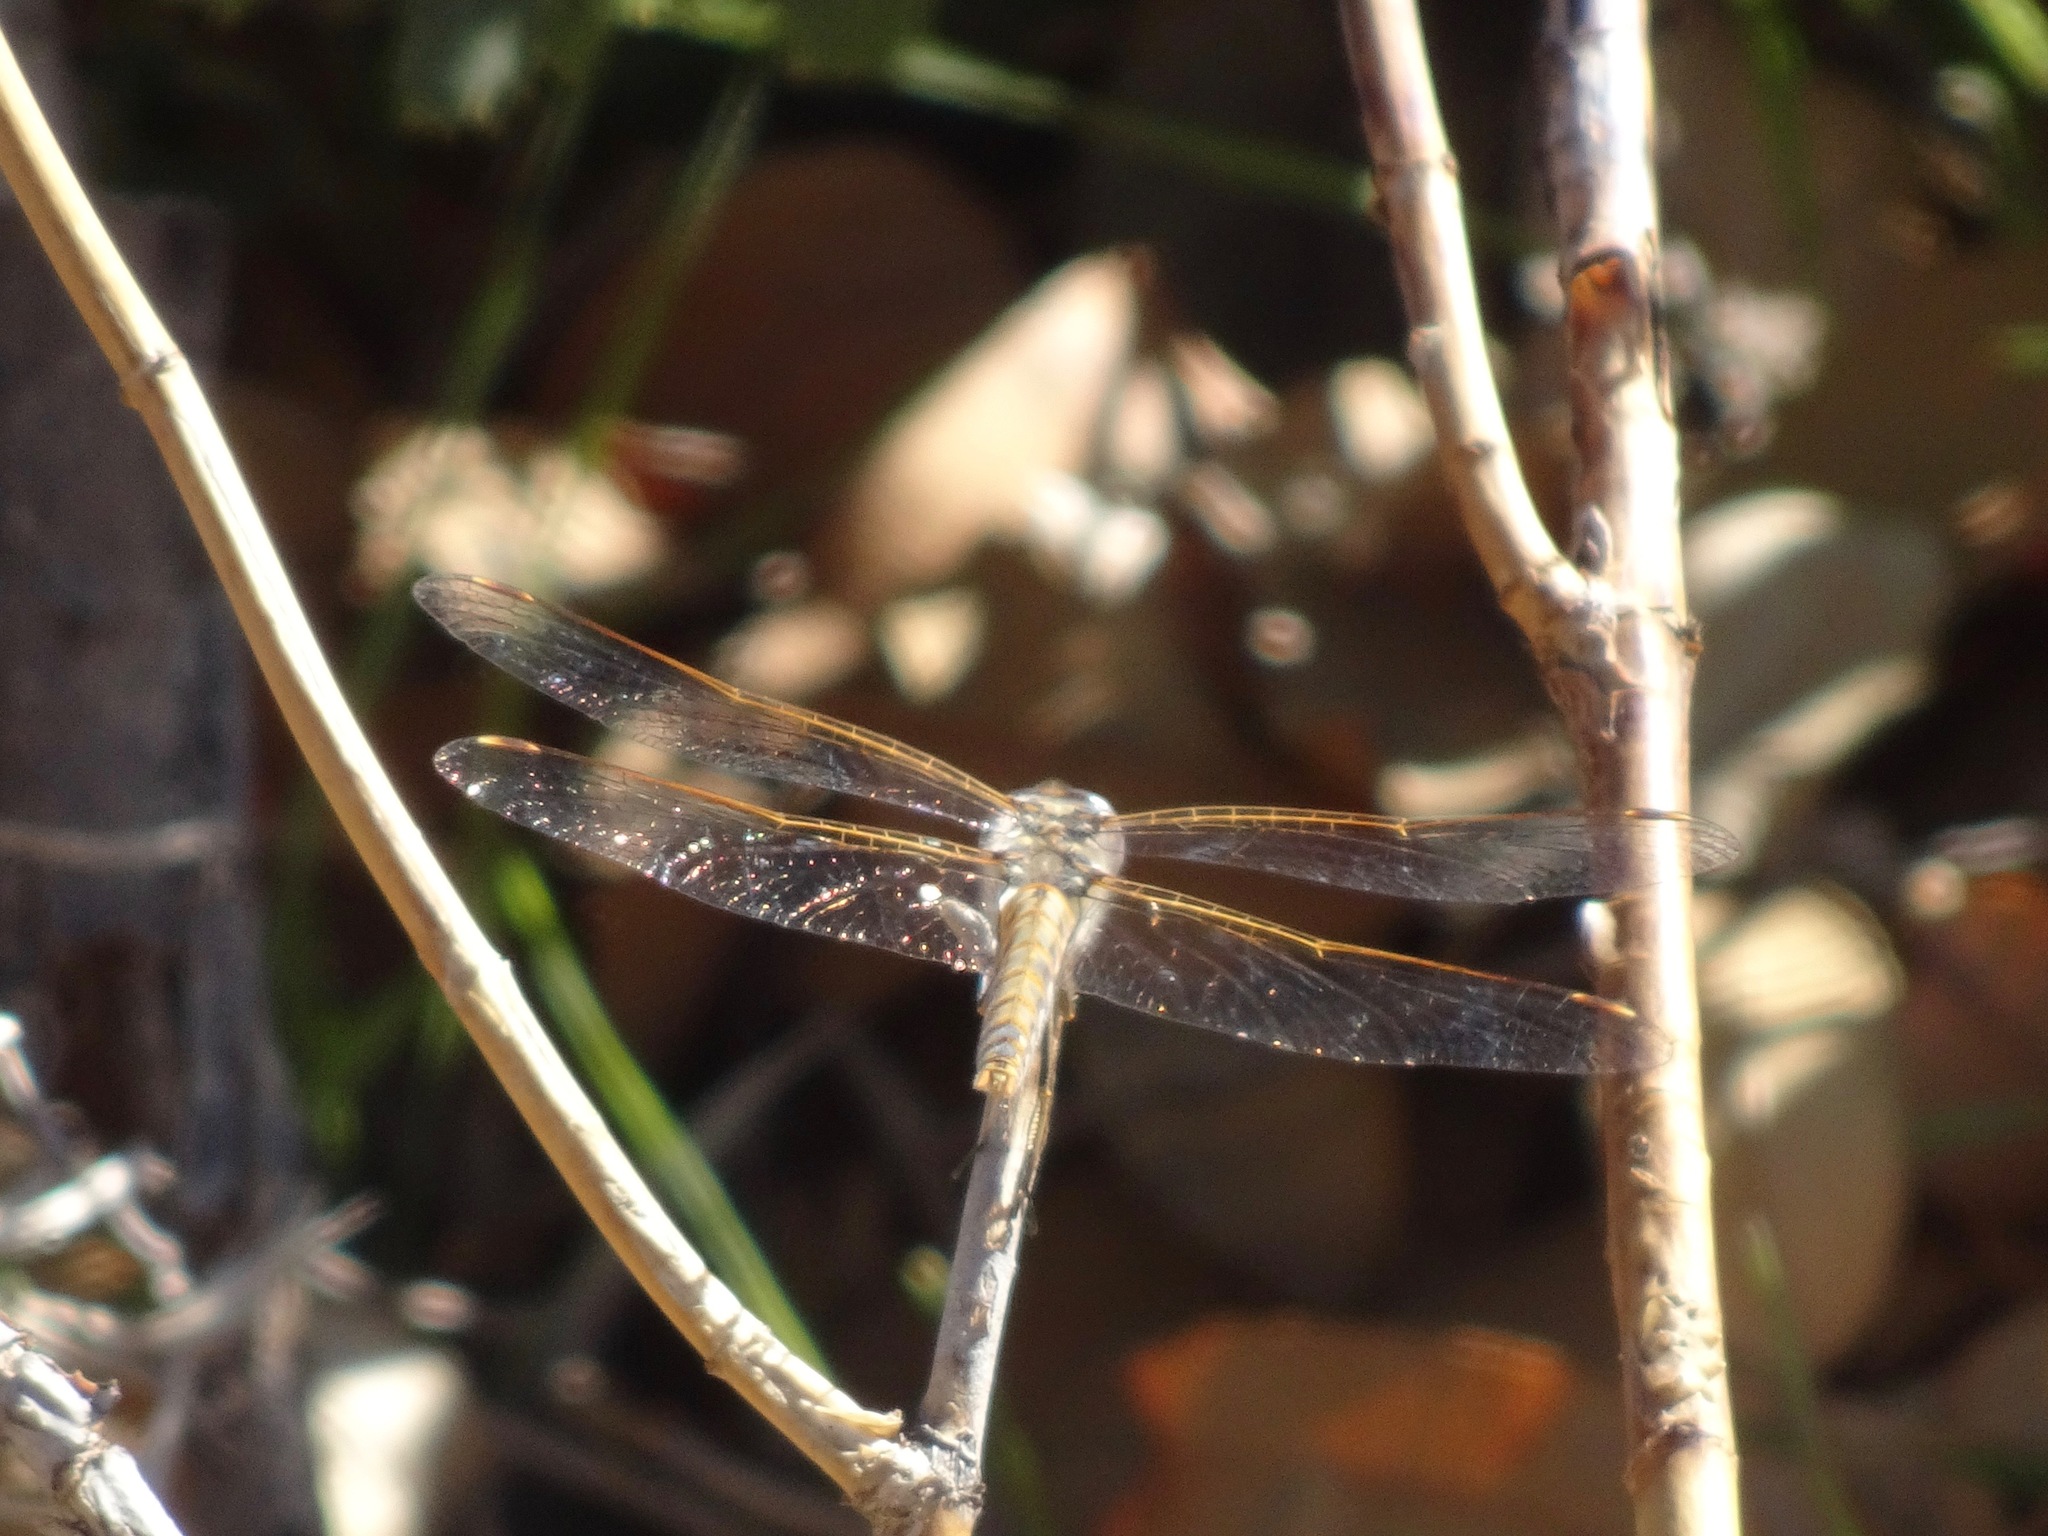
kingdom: Animalia
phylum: Arthropoda
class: Insecta
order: Odonata
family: Libellulidae
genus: Sympetrum
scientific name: Sympetrum corruptum
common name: Variegated meadowhawk
